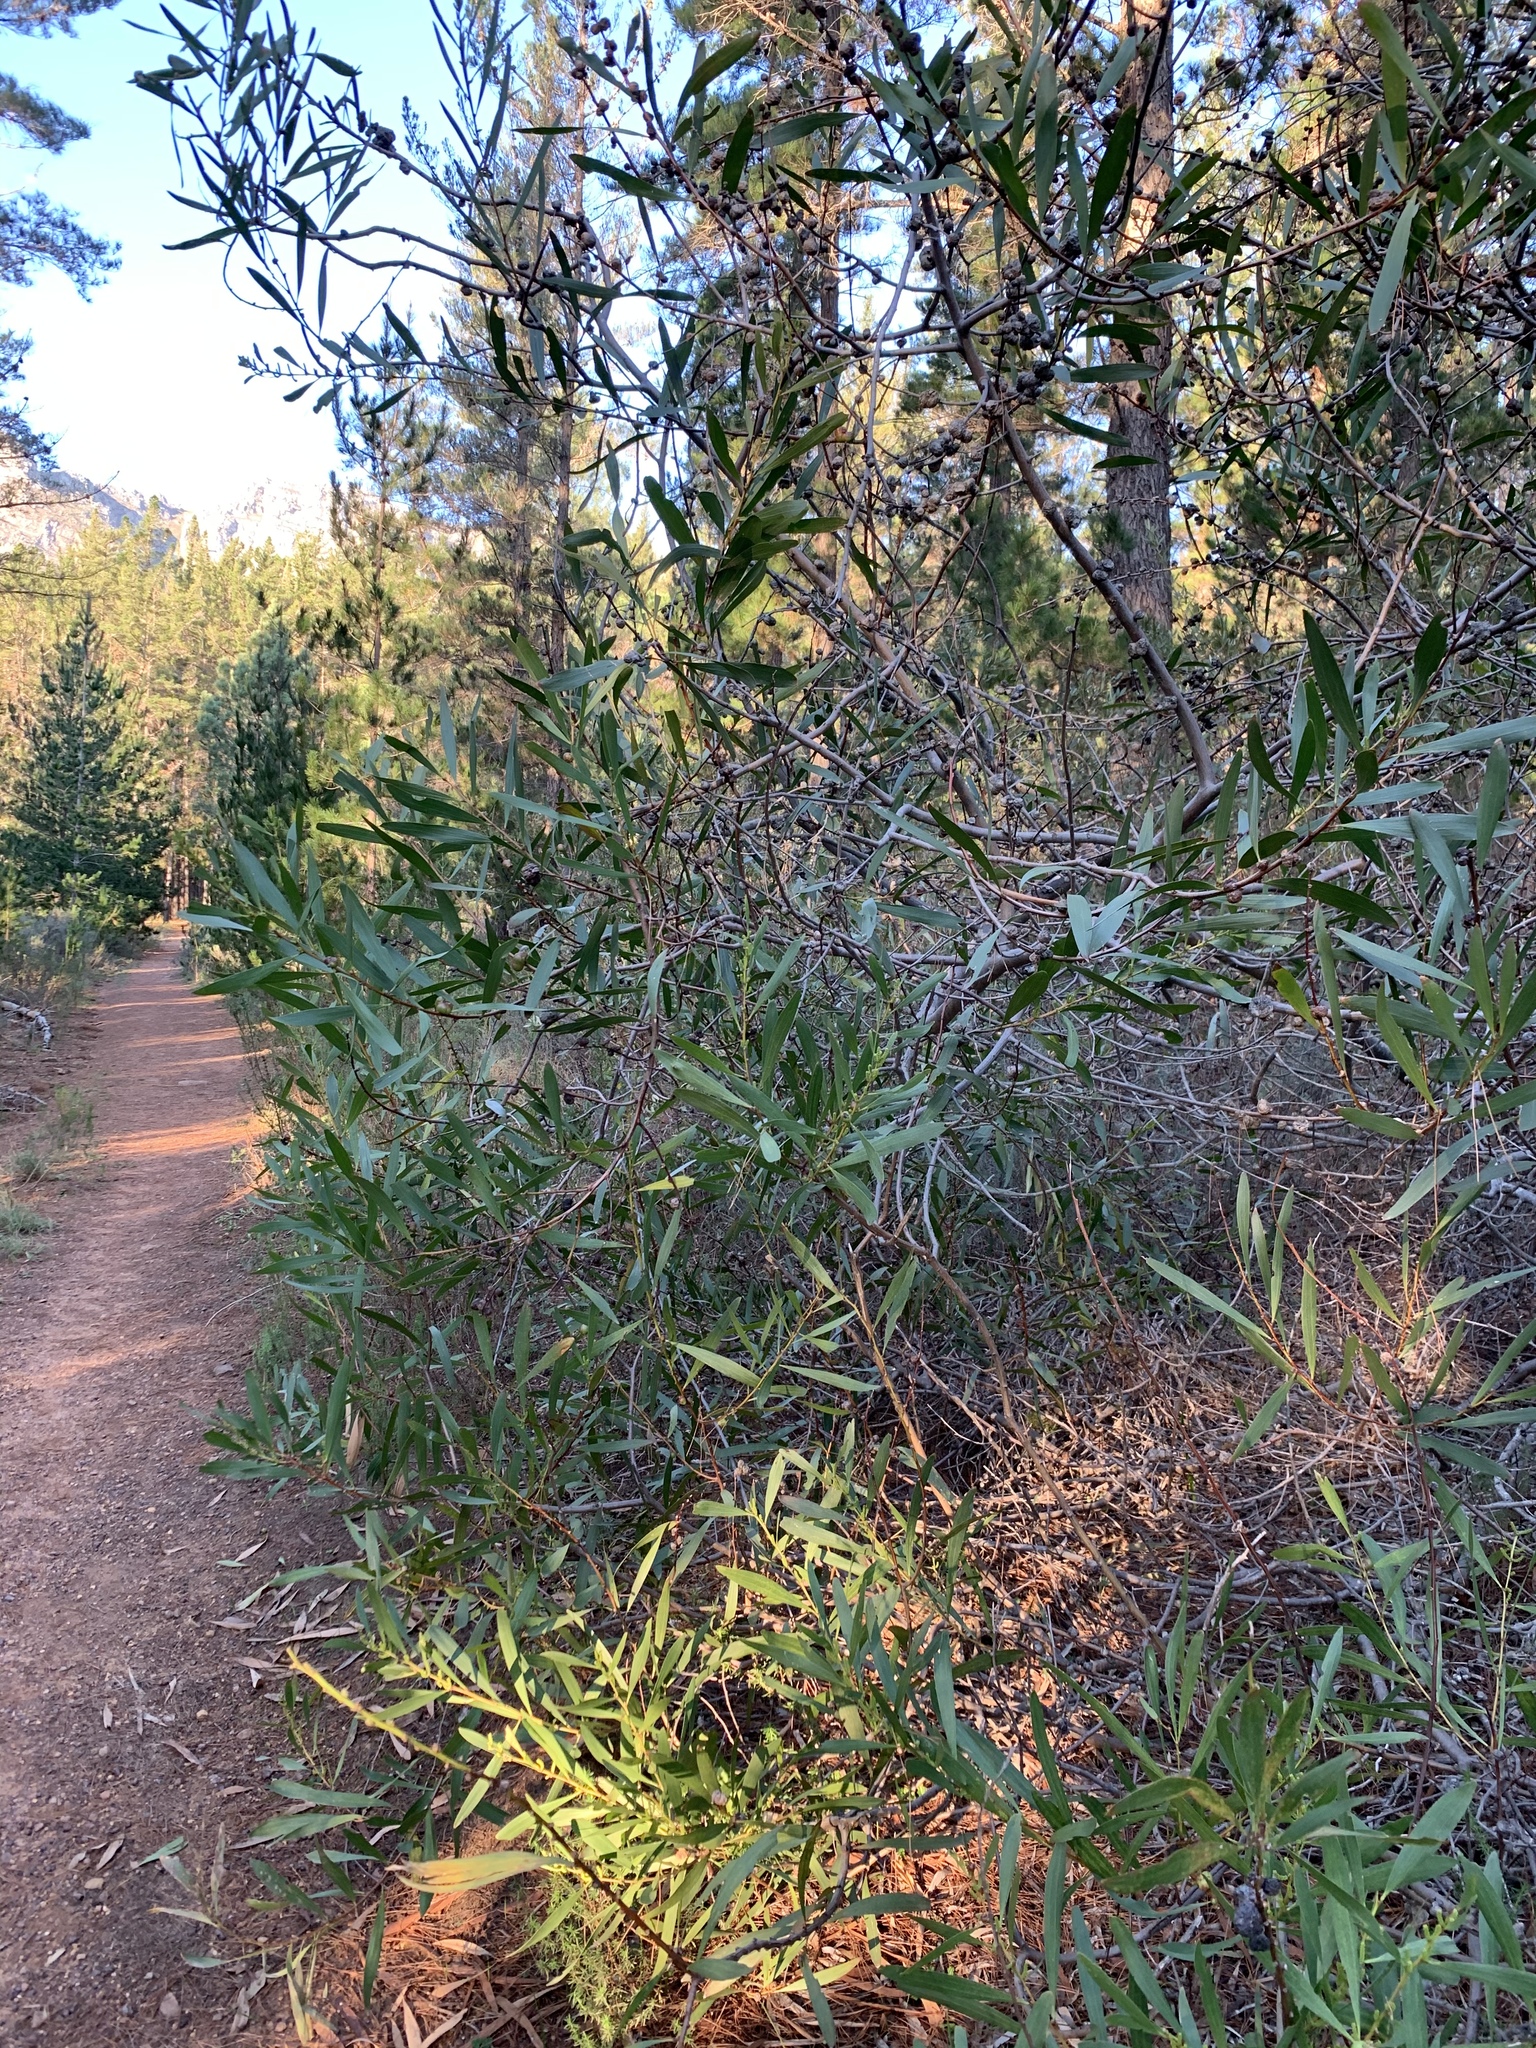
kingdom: Plantae
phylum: Tracheophyta
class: Magnoliopsida
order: Fabales
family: Fabaceae
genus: Acacia
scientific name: Acacia longifolia
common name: Sydney golden wattle
